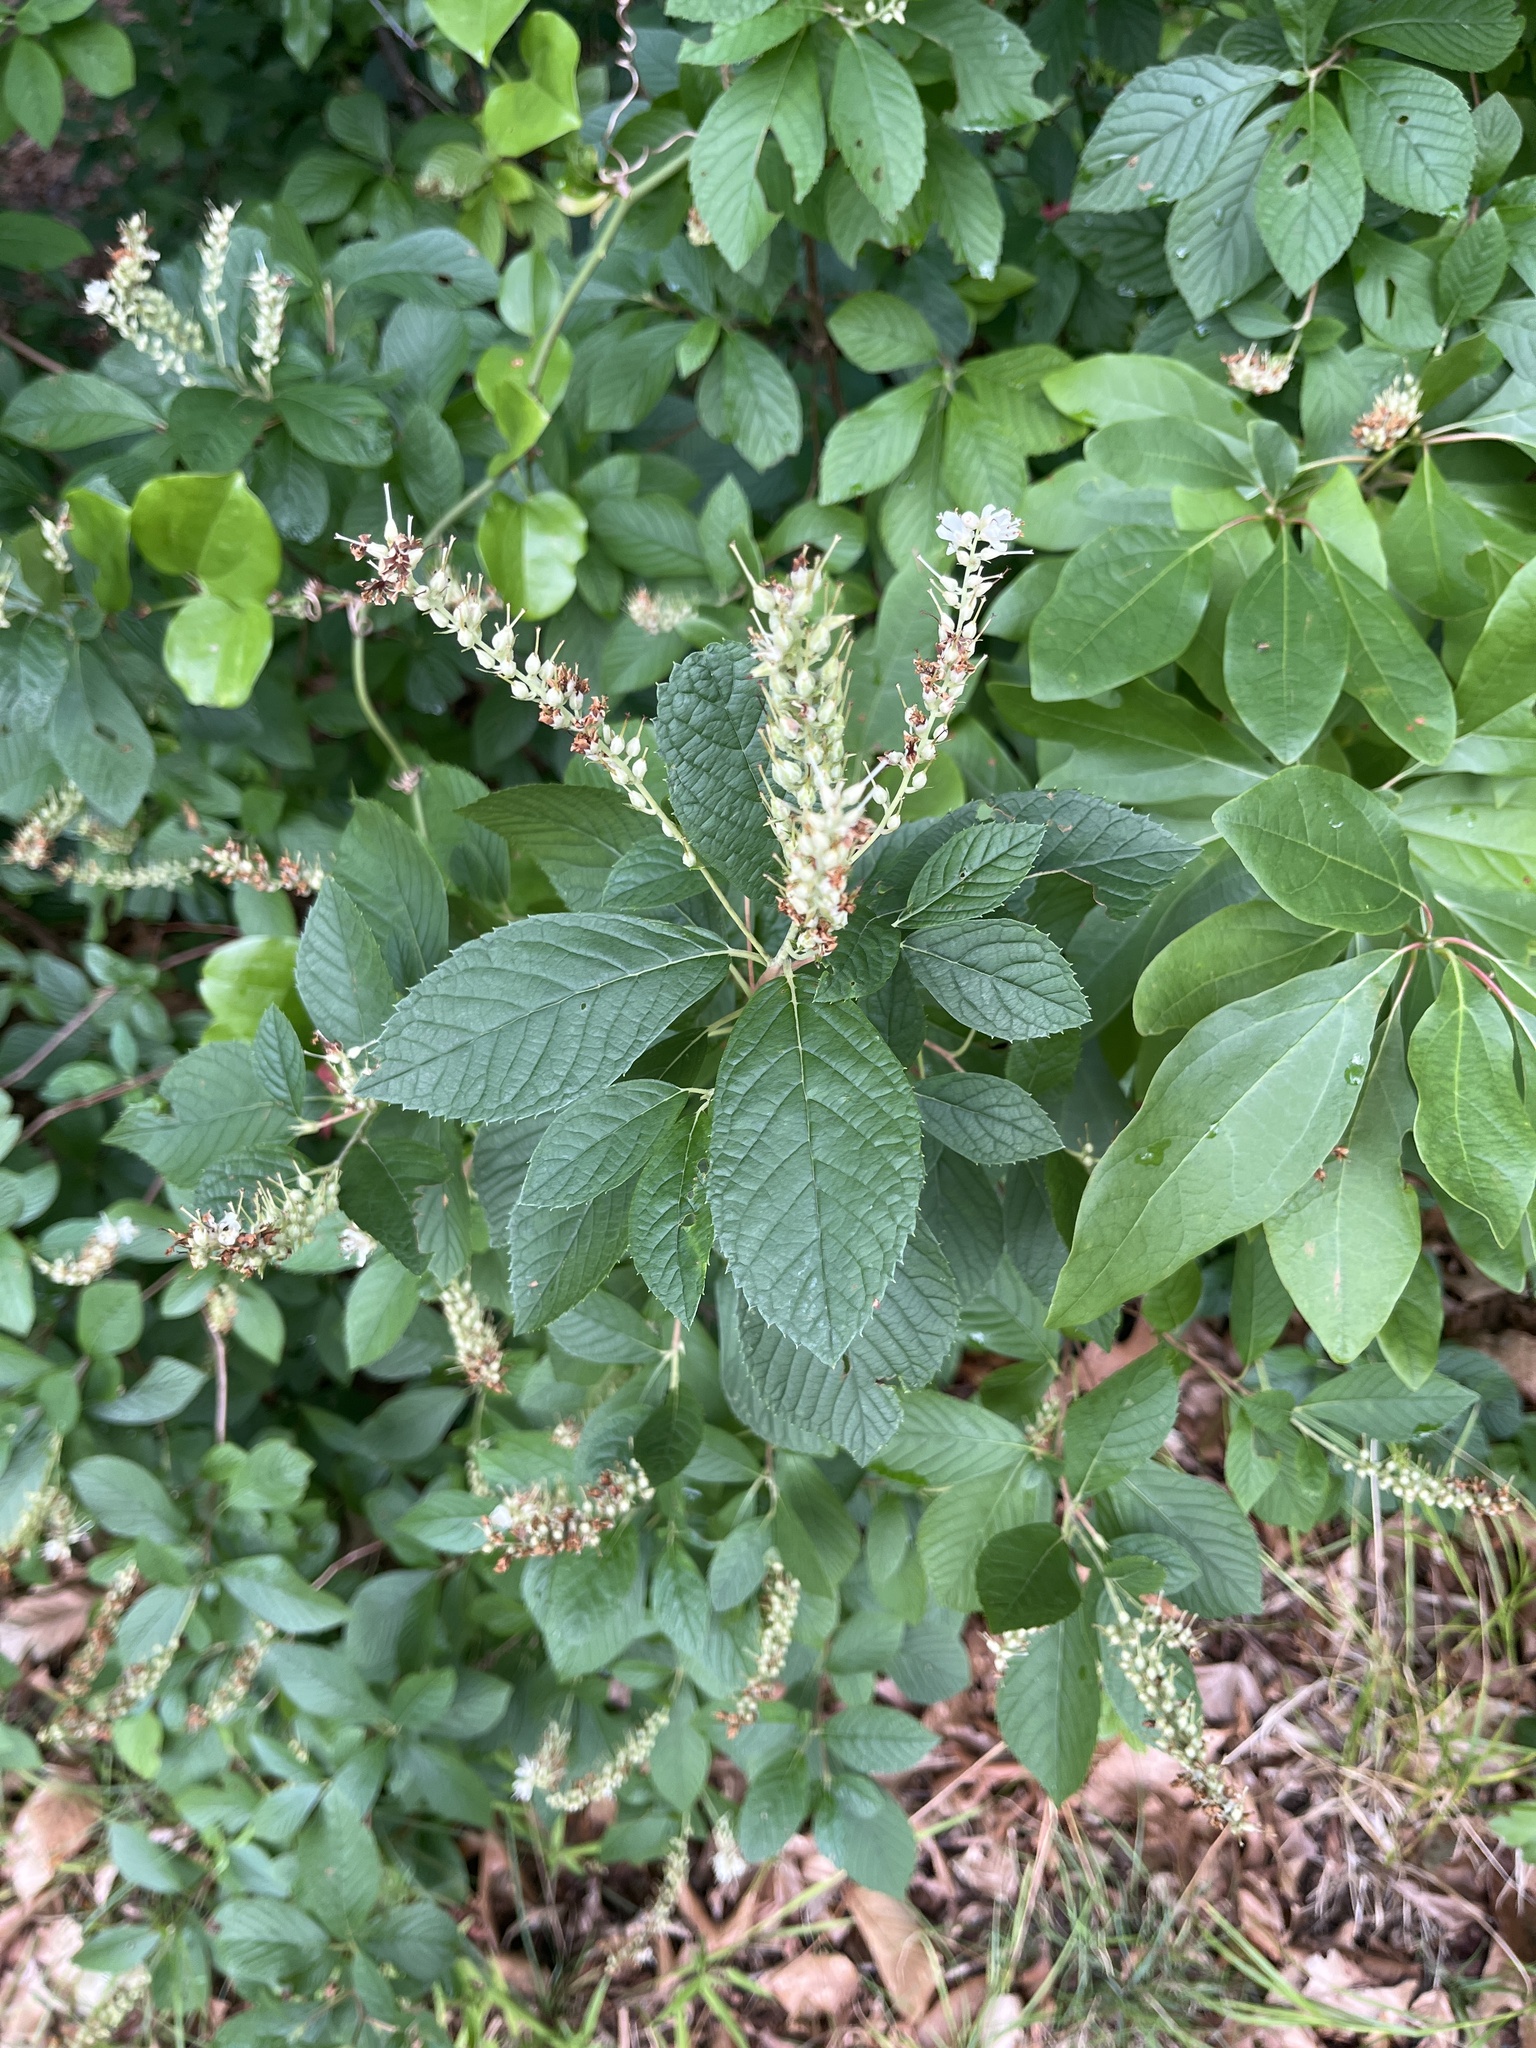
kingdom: Plantae
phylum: Tracheophyta
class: Magnoliopsida
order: Ericales
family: Clethraceae
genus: Clethra
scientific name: Clethra alnifolia
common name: Sweet pepperbush
